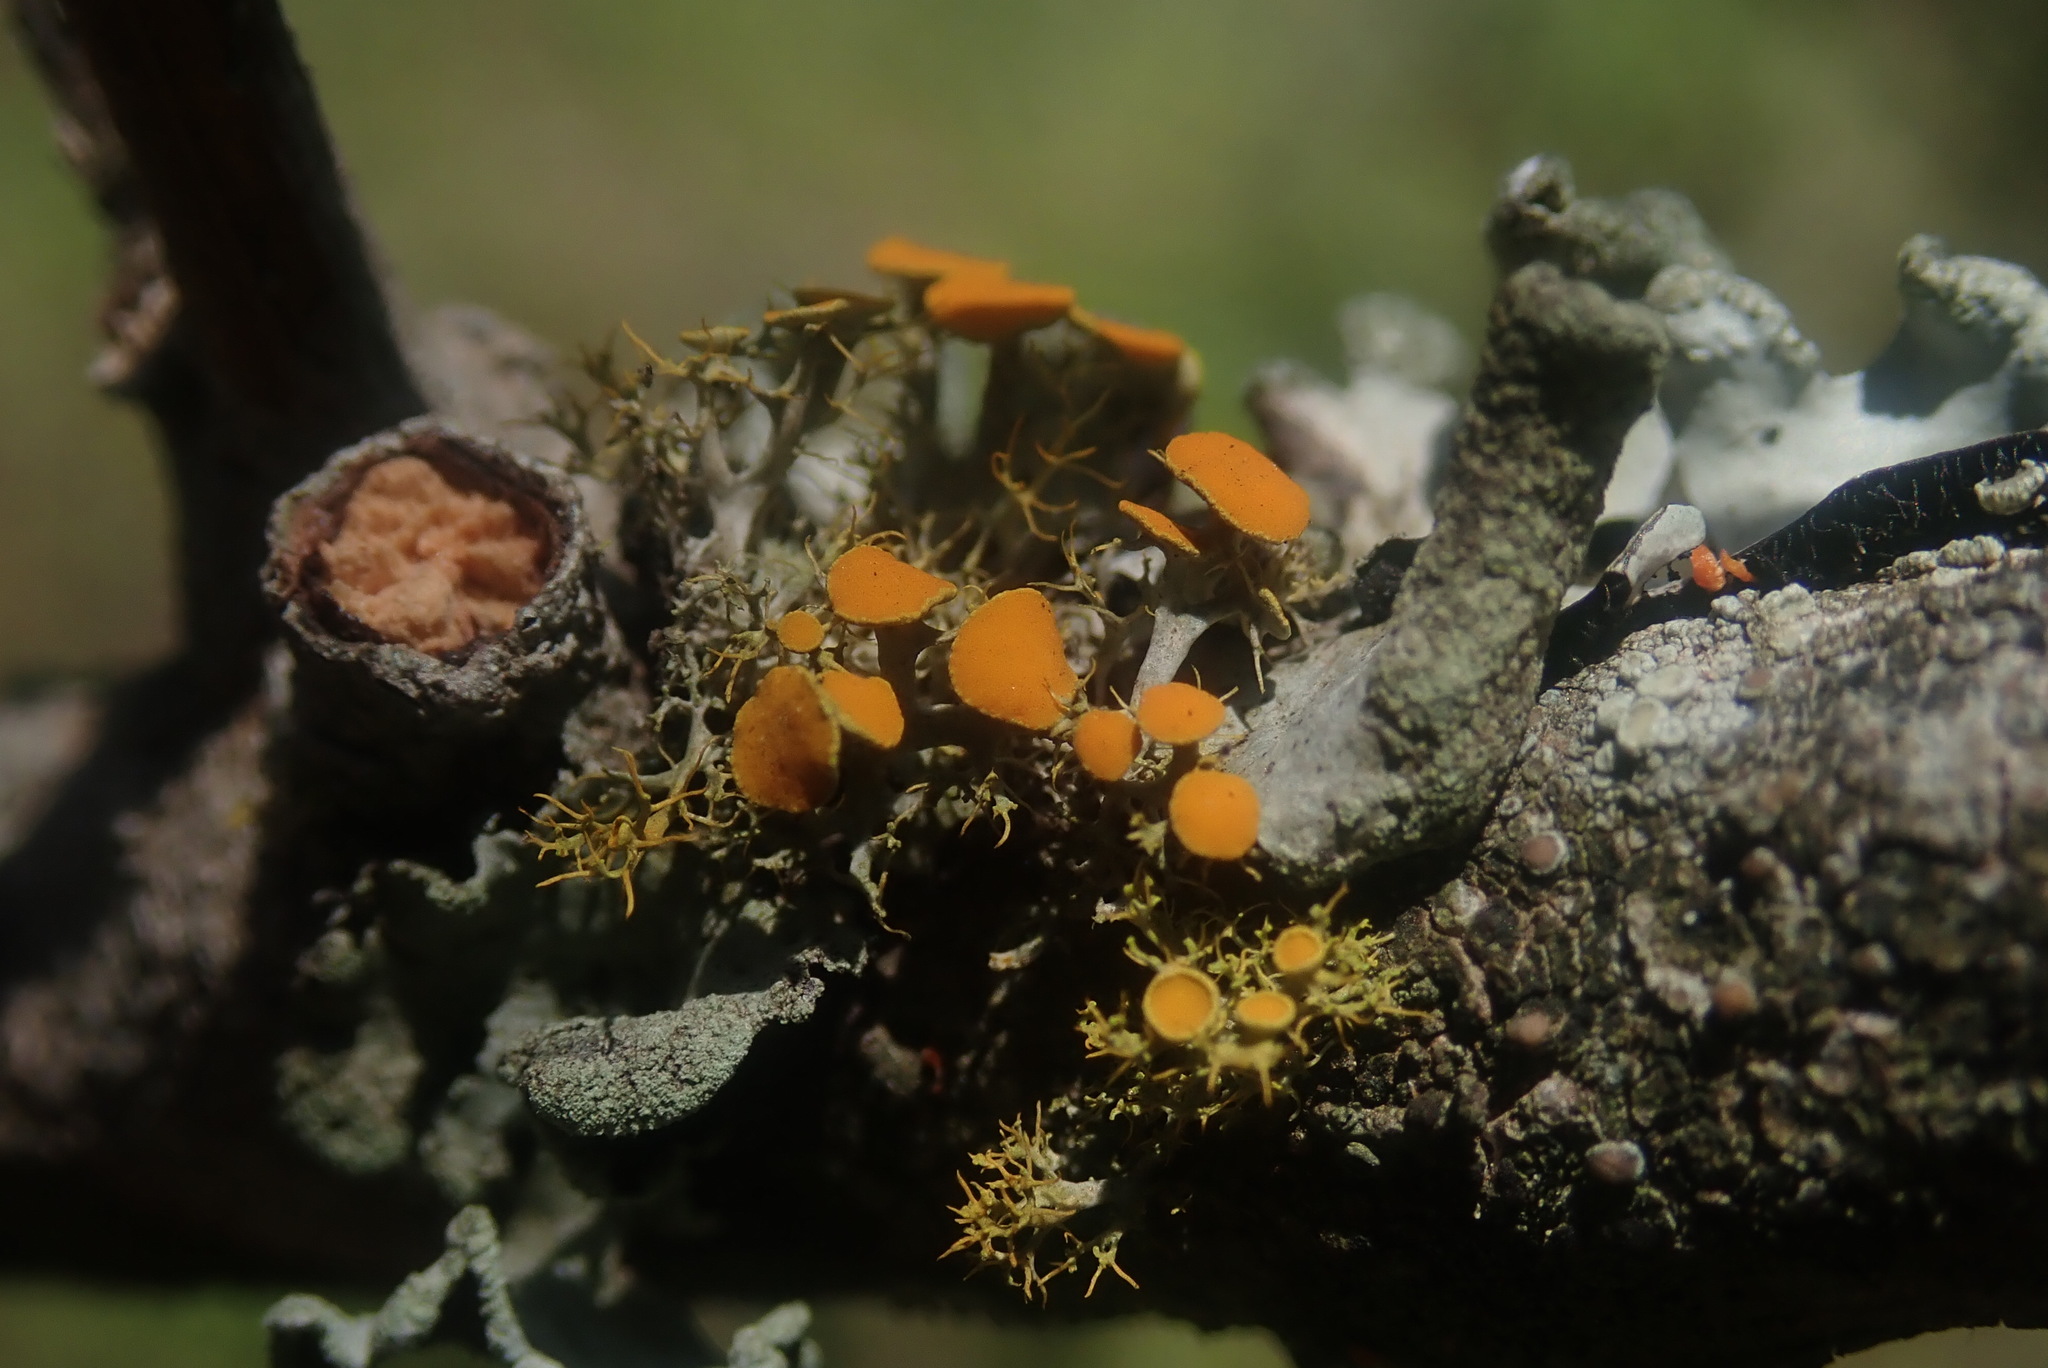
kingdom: Fungi
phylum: Ascomycota
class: Lecanoromycetes
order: Teloschistales
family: Teloschistaceae
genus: Teloschistes
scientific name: Teloschistes pulvinaris
